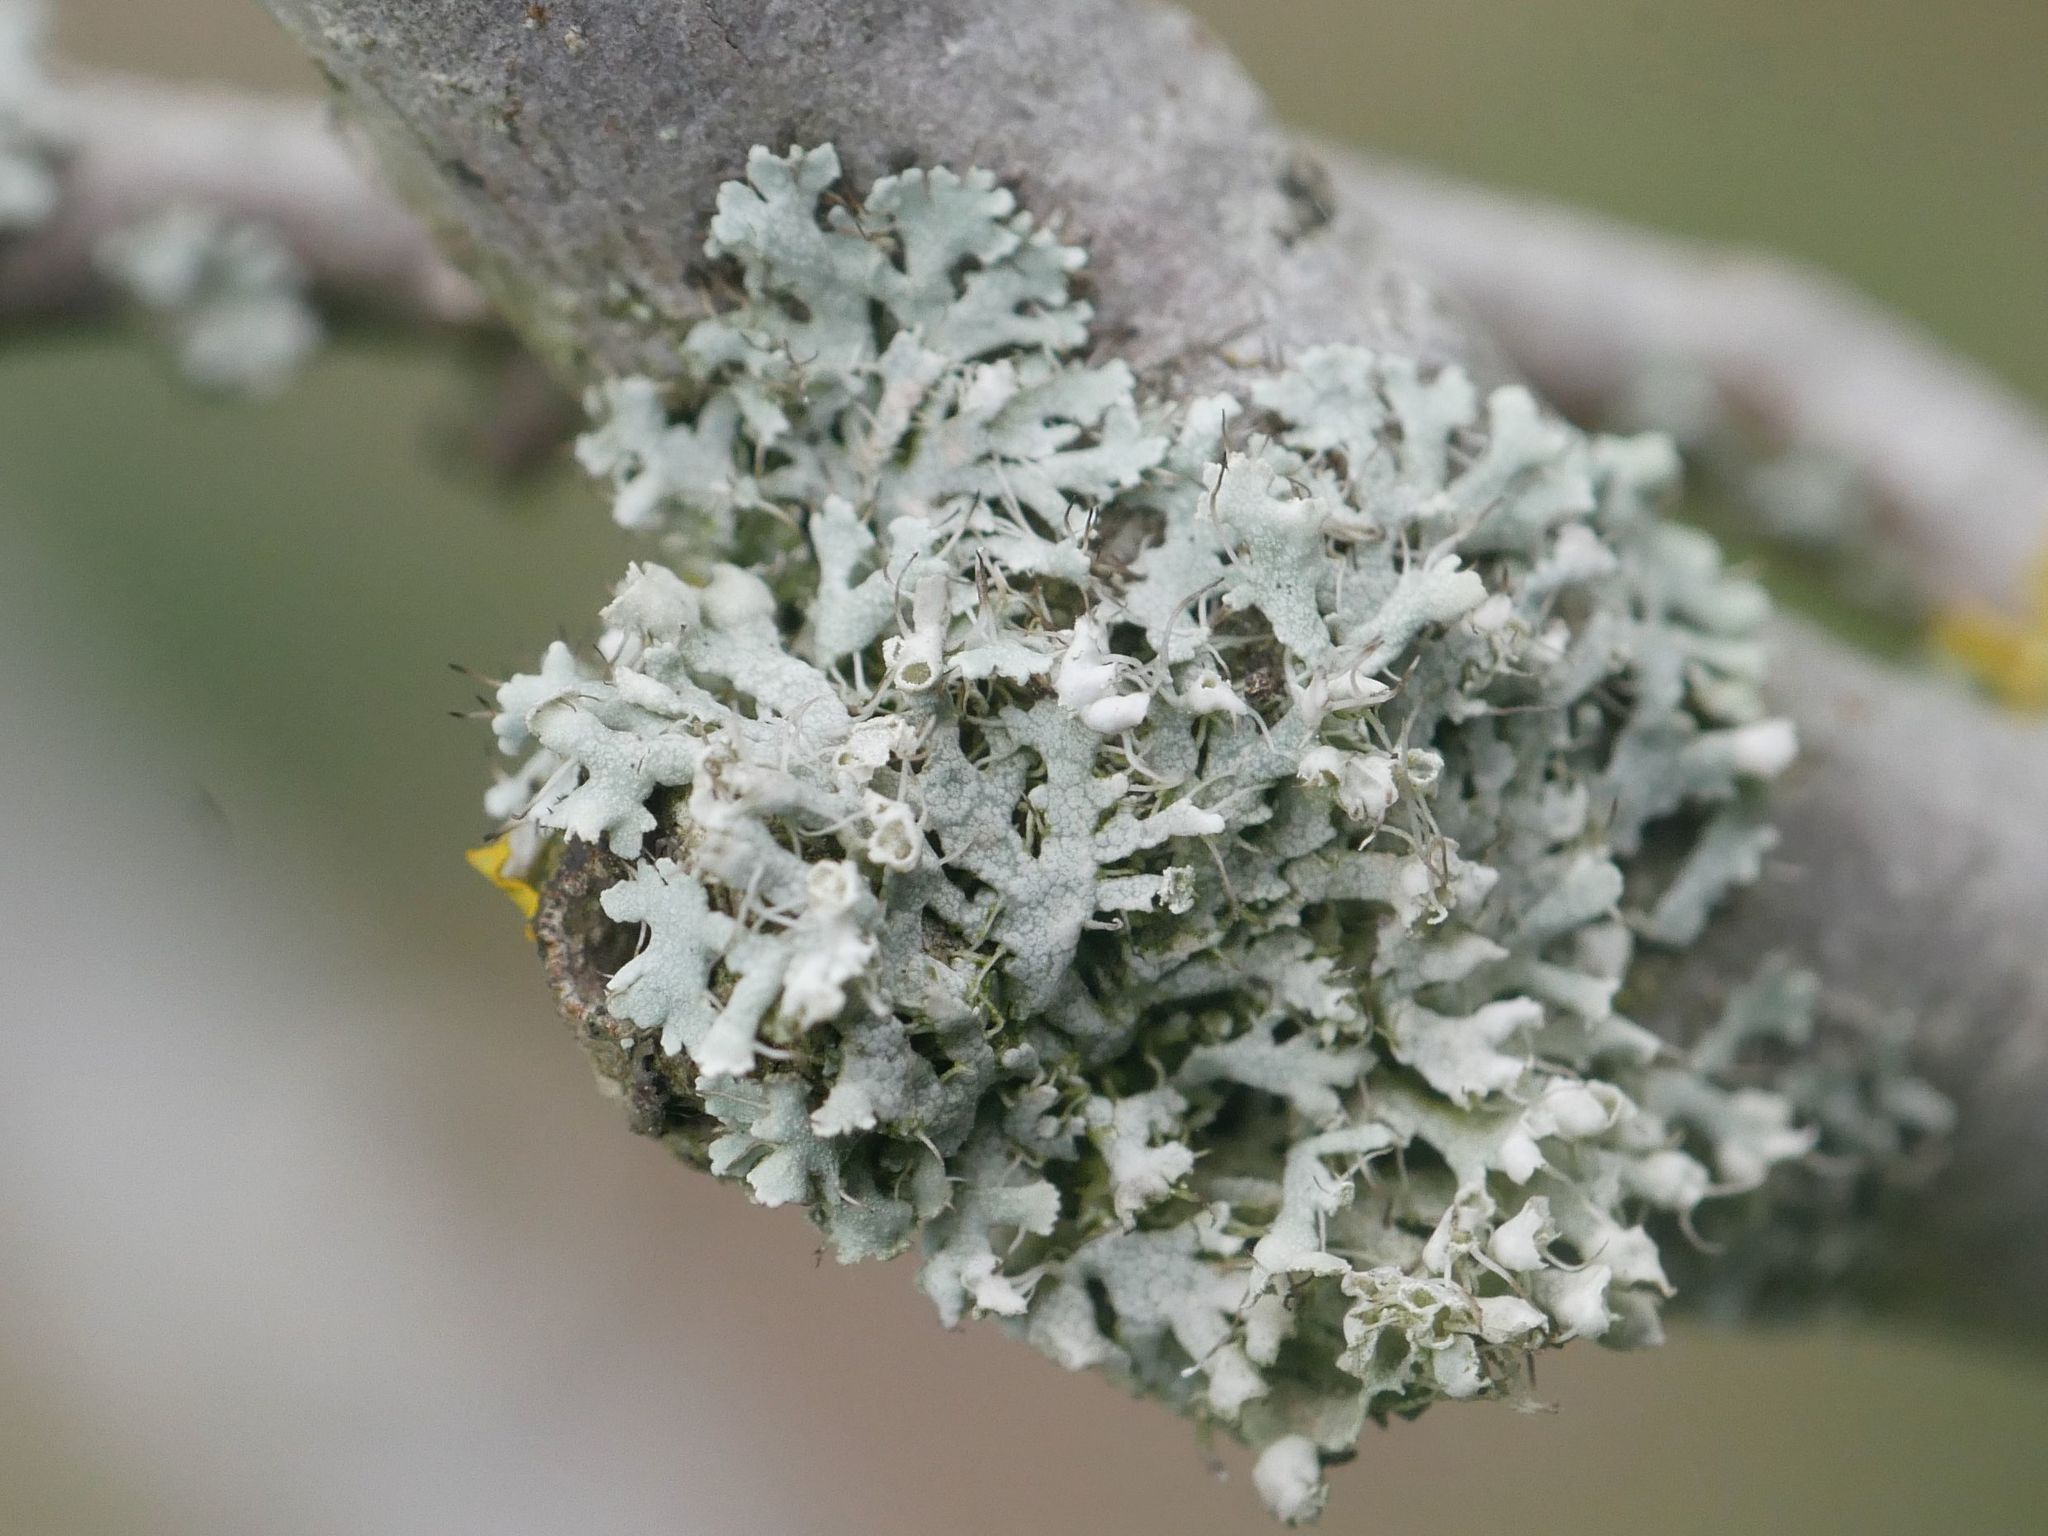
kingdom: Fungi
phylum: Ascomycota
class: Lecanoromycetes
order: Caliciales
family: Physciaceae
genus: Physcia
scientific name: Physcia adscendens
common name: Hooded rosette lichen
